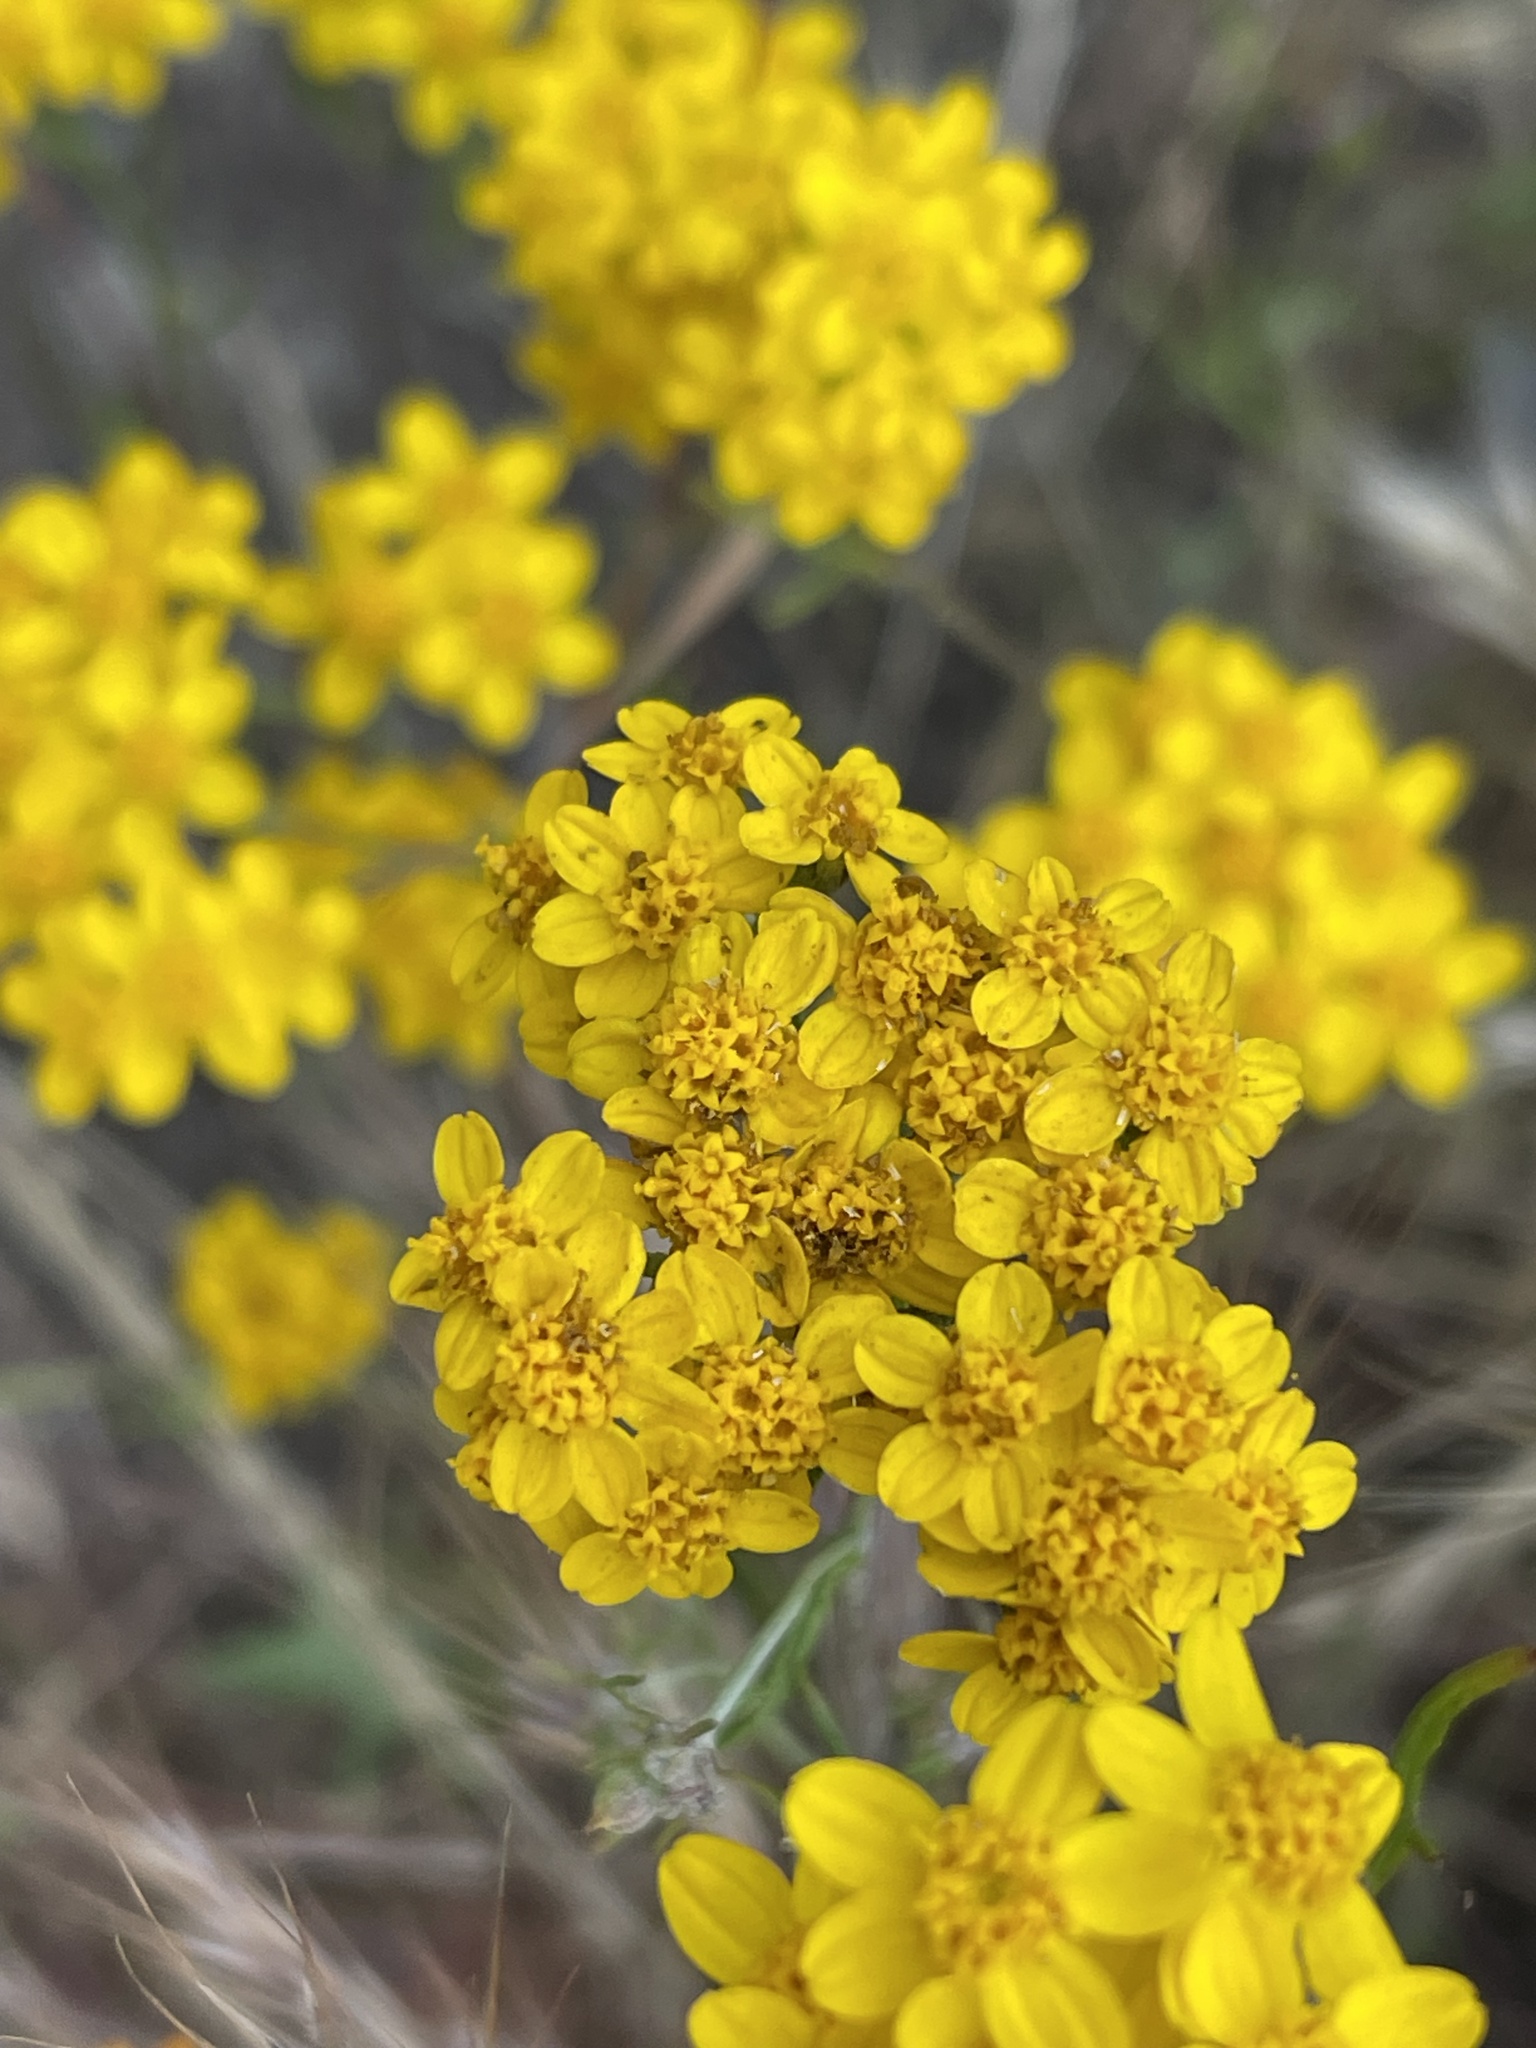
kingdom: Plantae
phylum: Tracheophyta
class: Magnoliopsida
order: Asterales
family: Asteraceae
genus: Eriophyllum
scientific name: Eriophyllum confertiflorum
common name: Golden-yarrow
